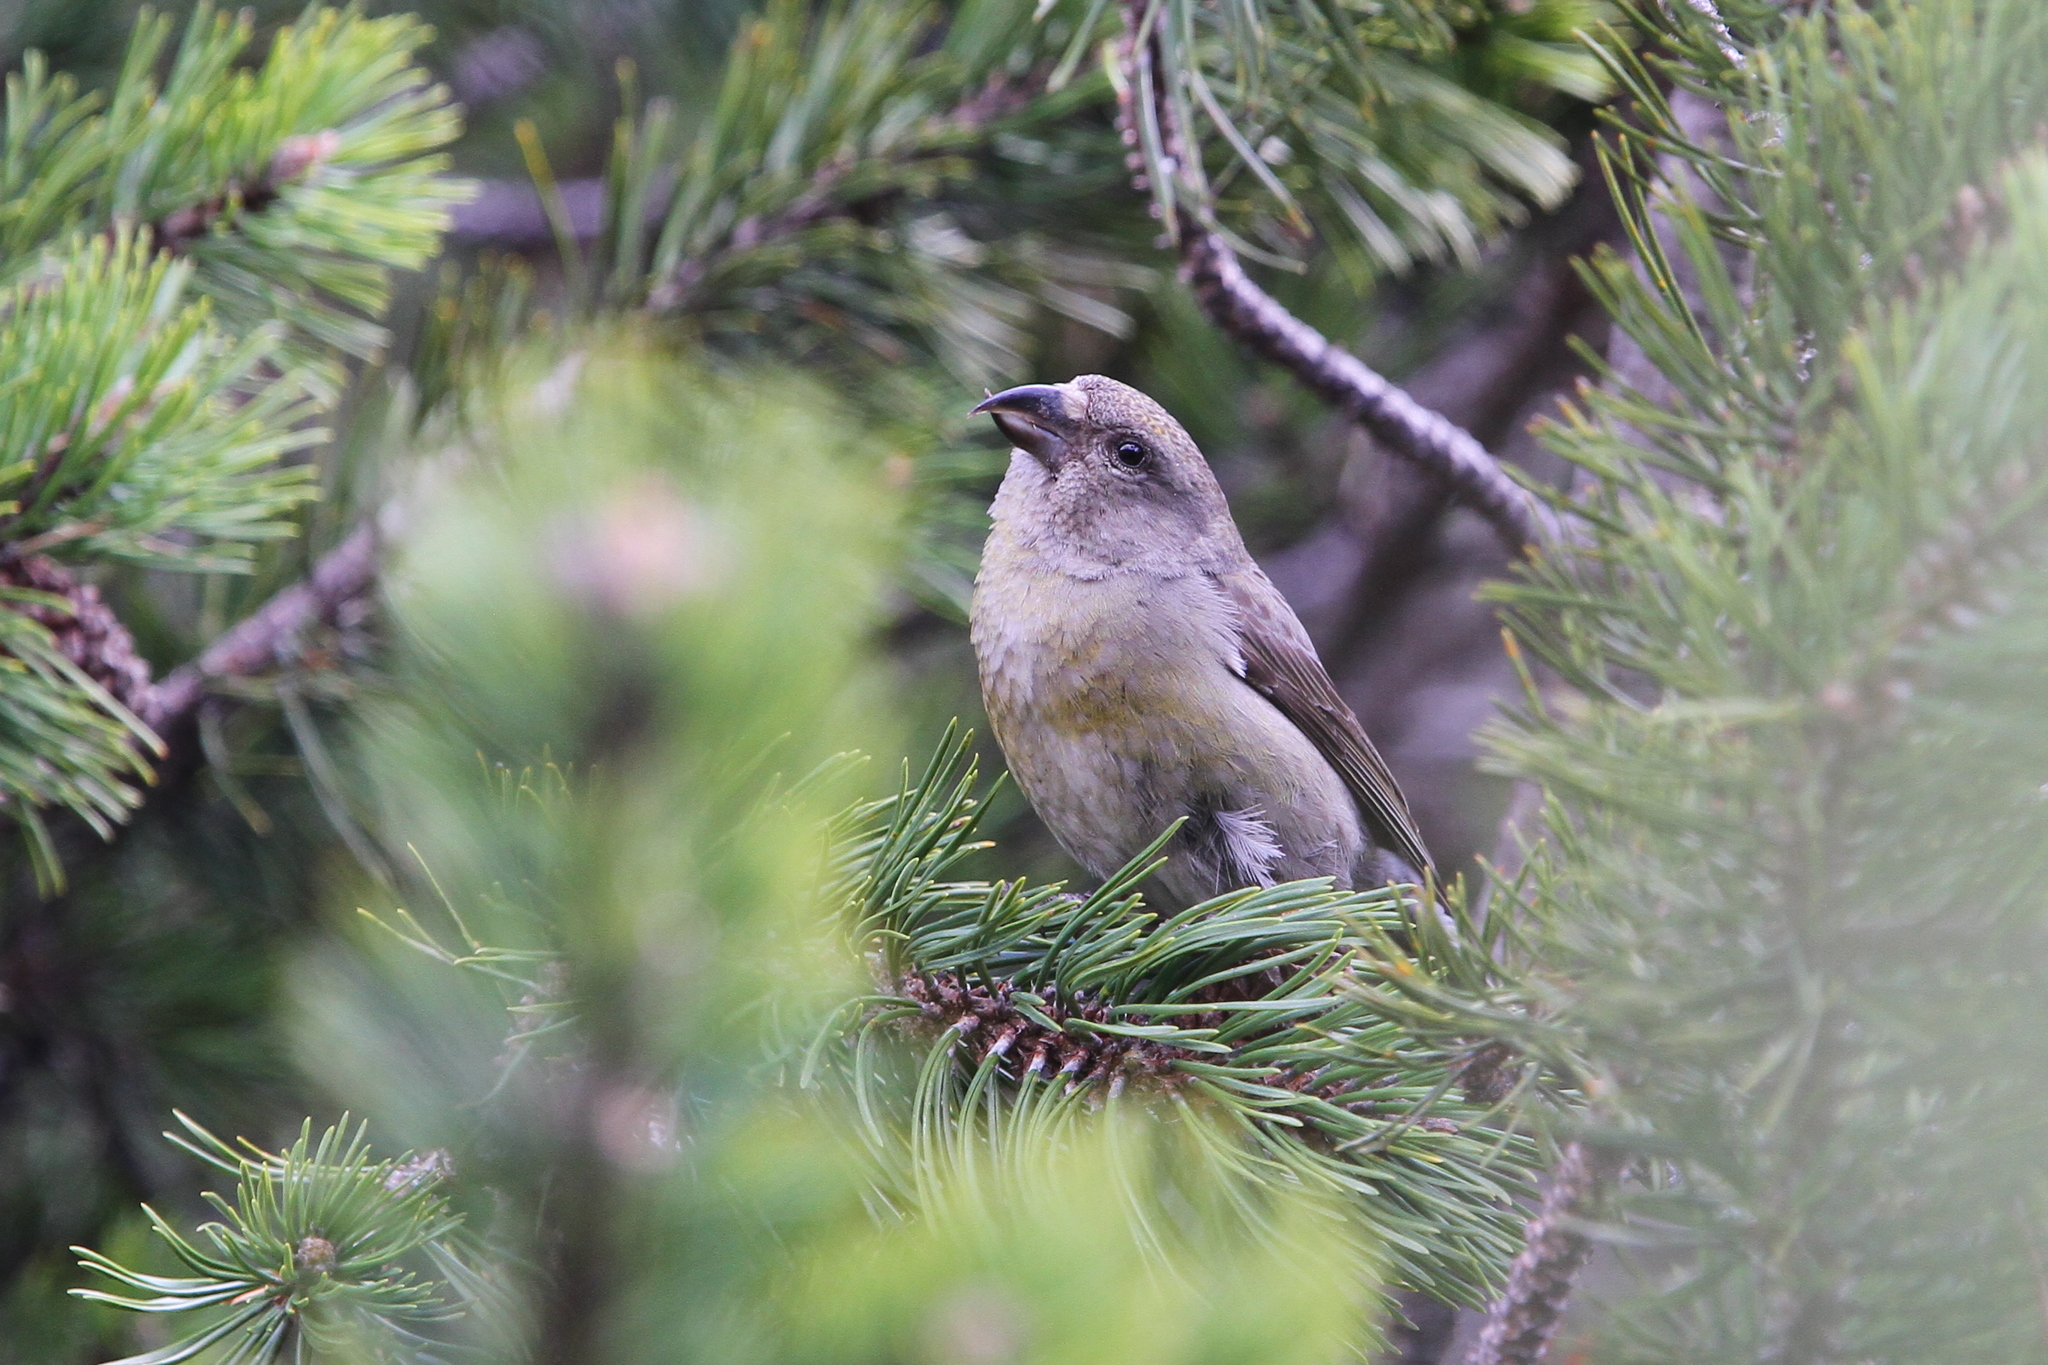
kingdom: Animalia
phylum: Chordata
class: Aves
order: Passeriformes
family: Fringillidae
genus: Loxia
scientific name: Loxia curvirostra
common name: Red crossbill
